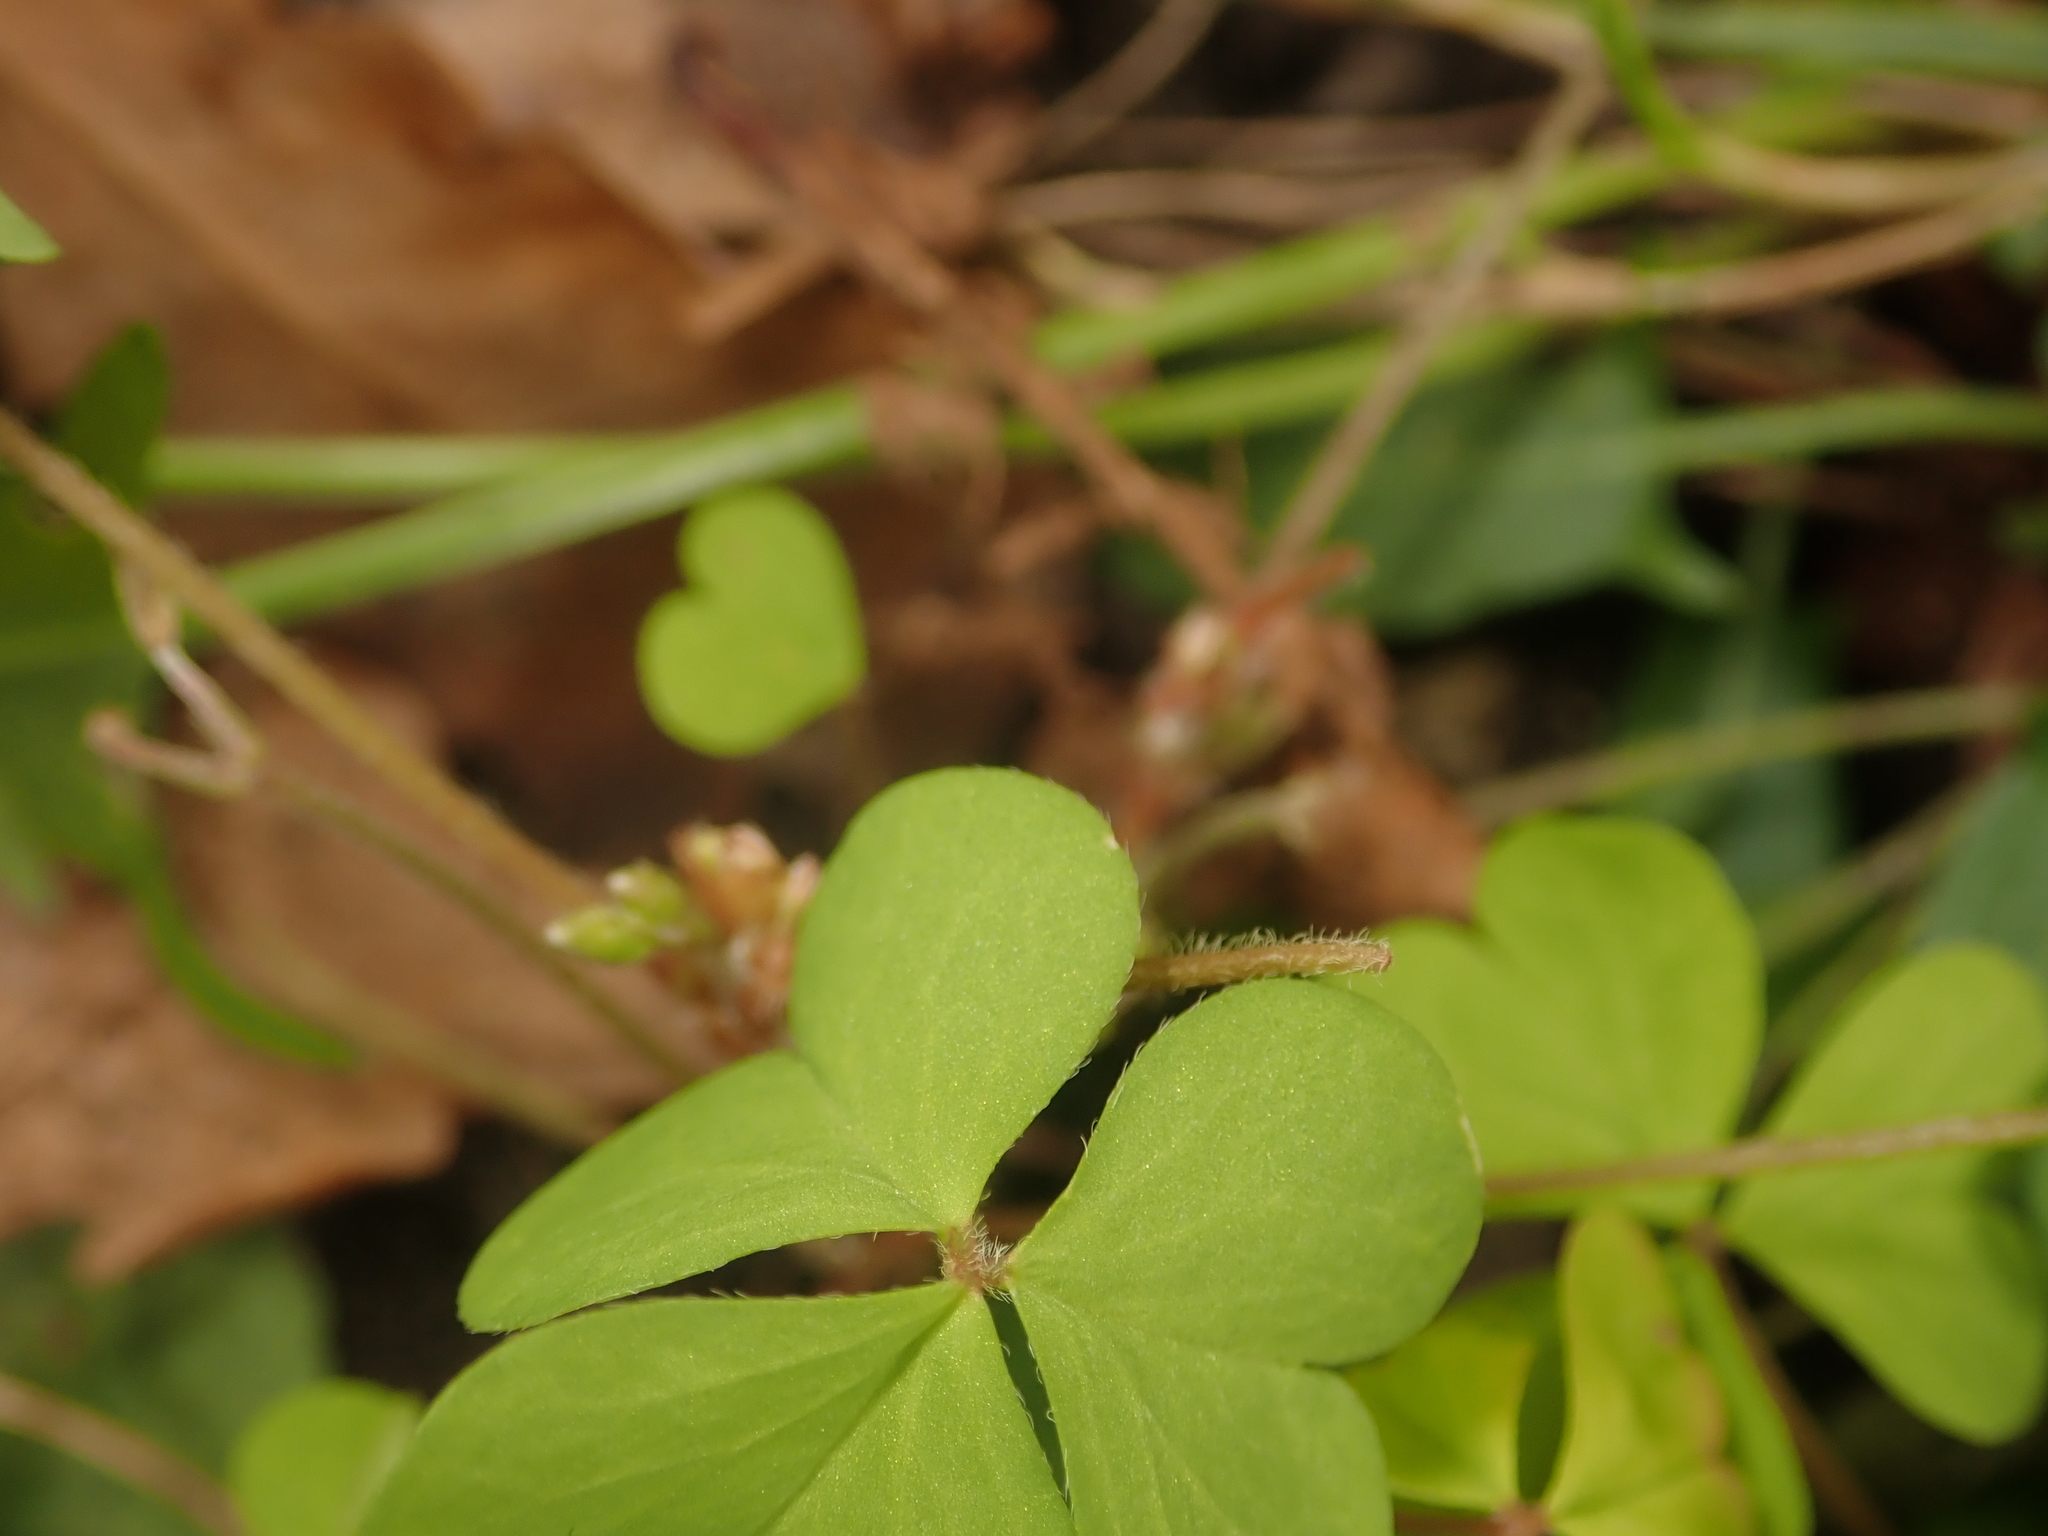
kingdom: Plantae
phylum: Tracheophyta
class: Magnoliopsida
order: Oxalidales
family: Oxalidaceae
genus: Oxalis
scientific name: Oxalis corniculata
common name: Procumbent yellow-sorrel
